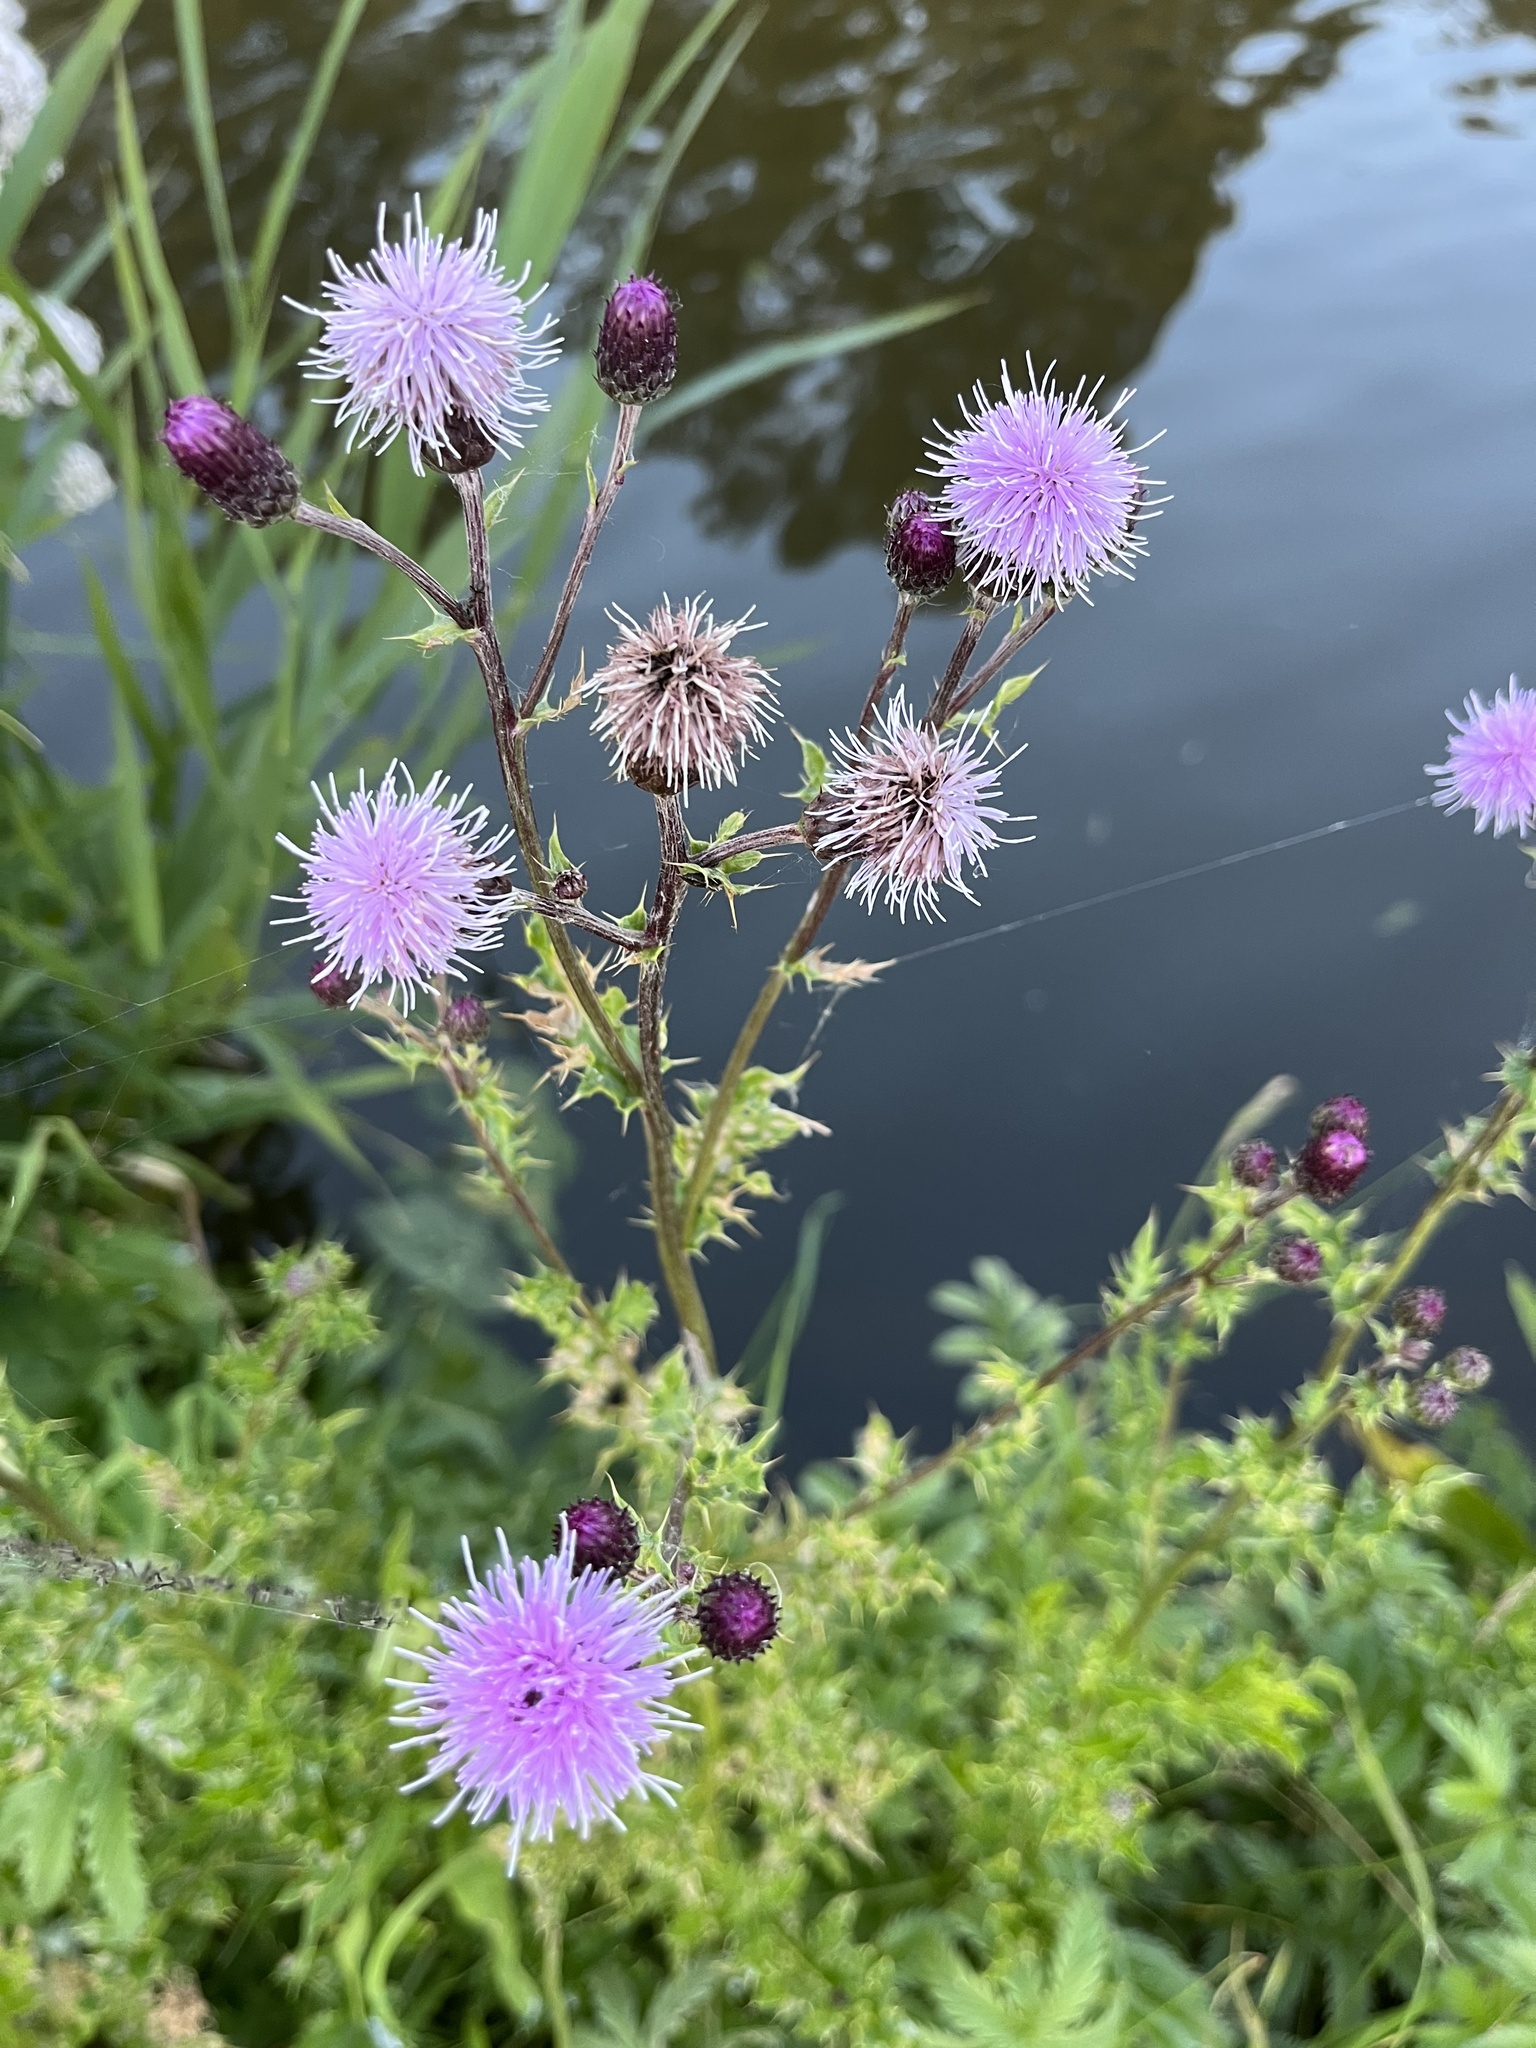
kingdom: Plantae
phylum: Tracheophyta
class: Magnoliopsida
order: Asterales
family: Asteraceae
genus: Cirsium
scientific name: Cirsium arvense
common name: Creeping thistle
